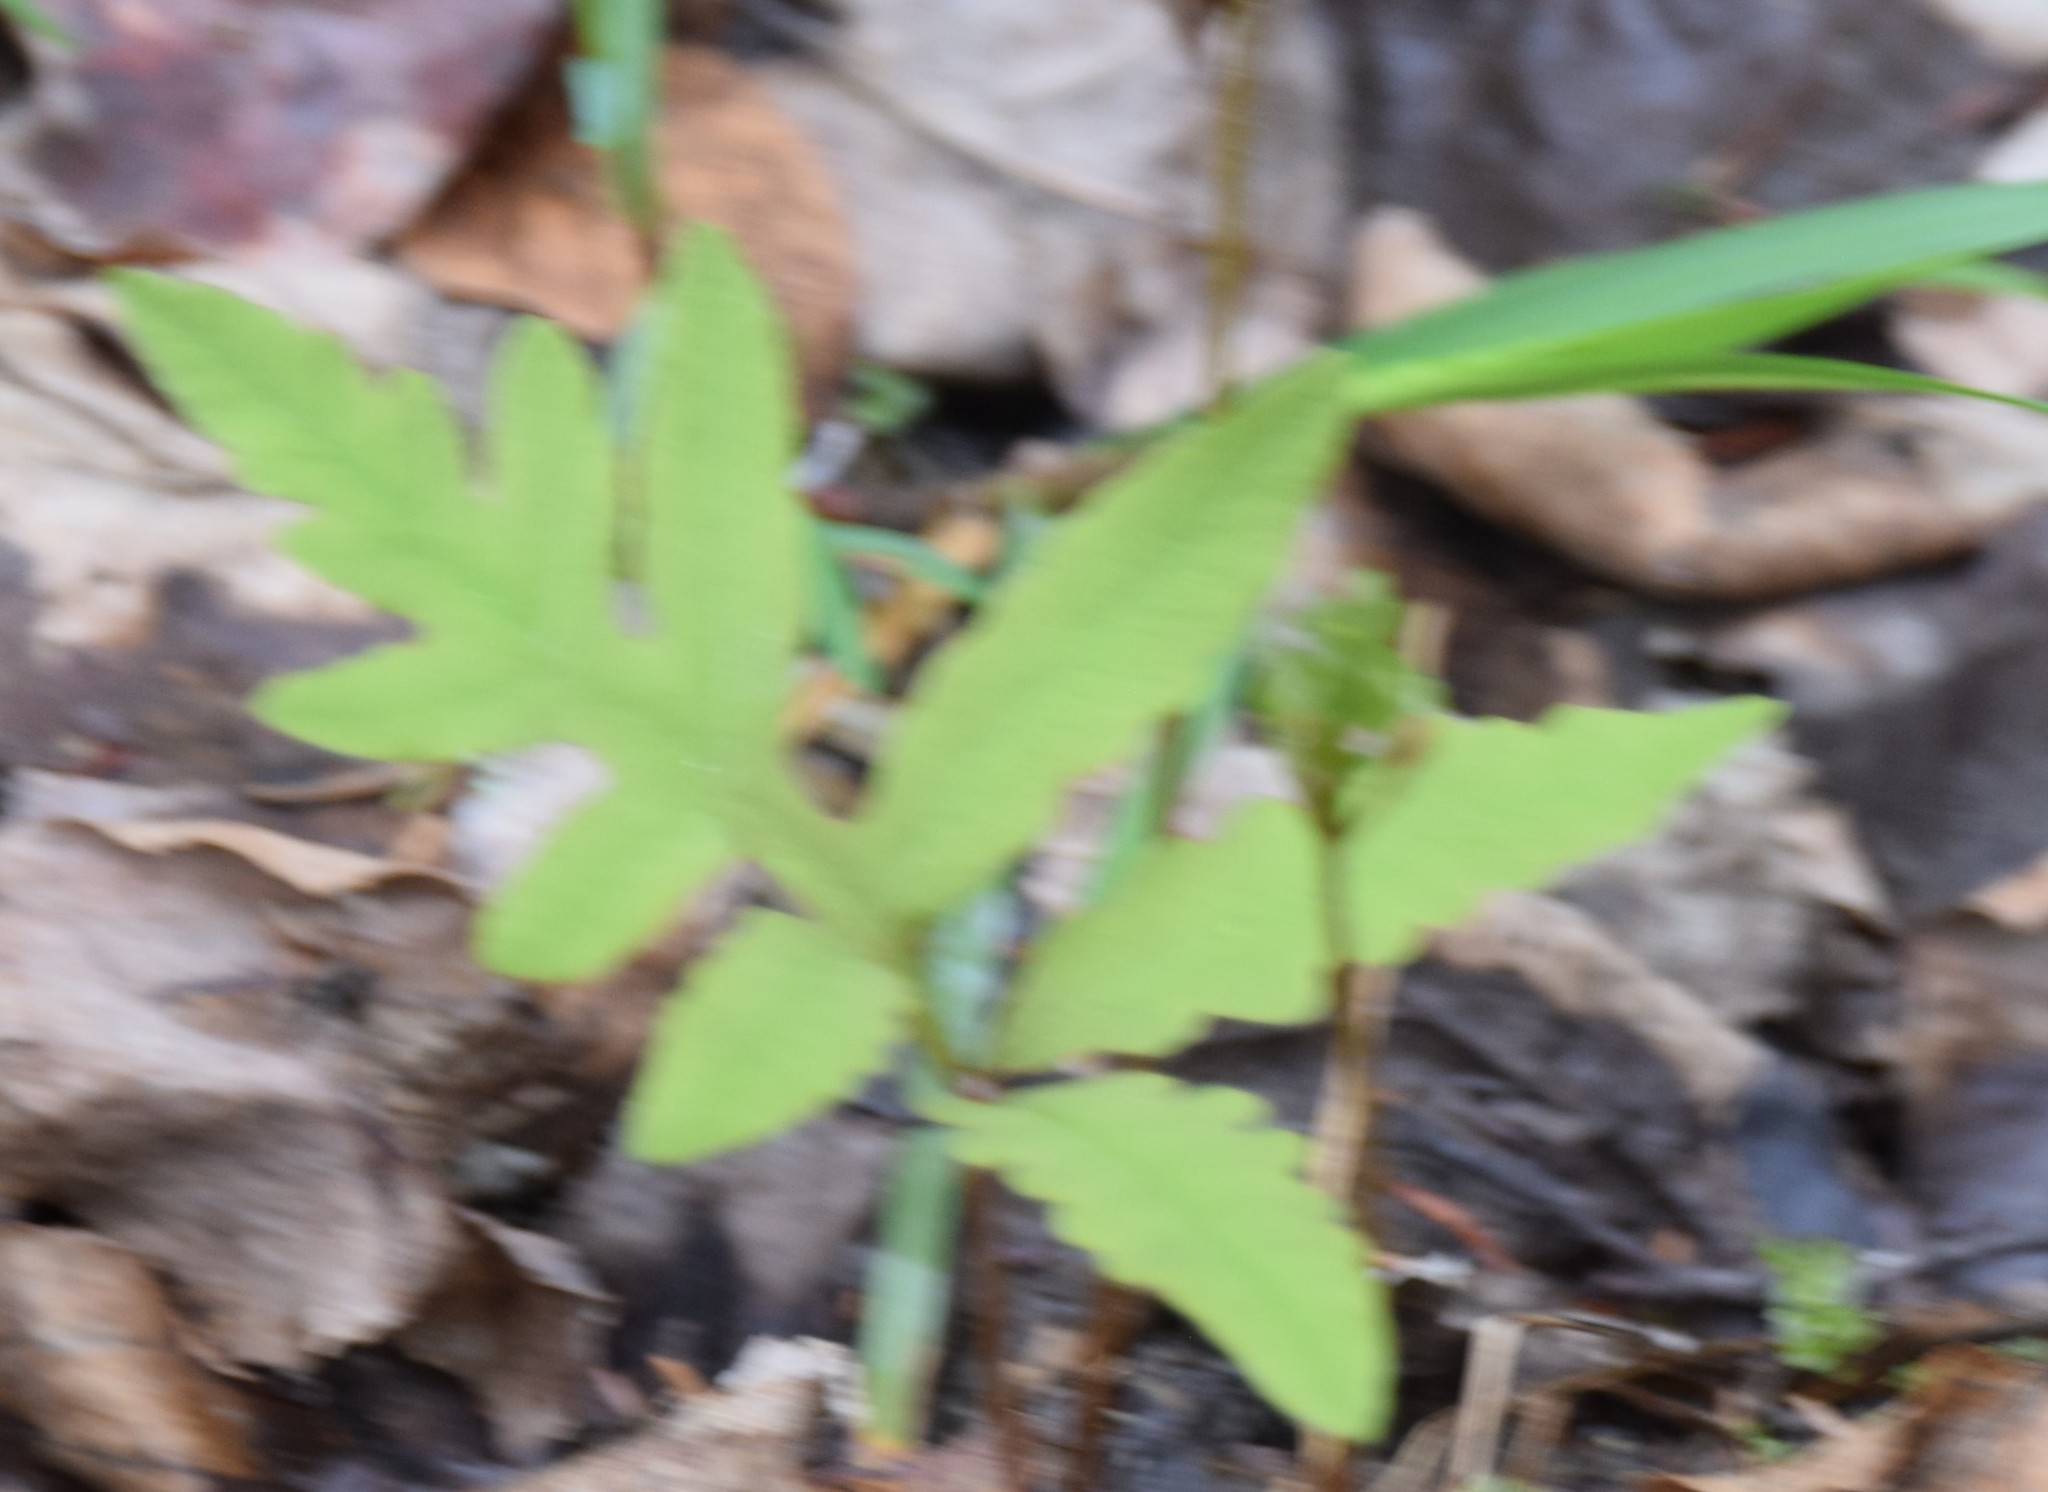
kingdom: Plantae
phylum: Tracheophyta
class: Polypodiopsida
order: Polypodiales
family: Onocleaceae
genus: Onoclea
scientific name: Onoclea sensibilis
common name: Sensitive fern
